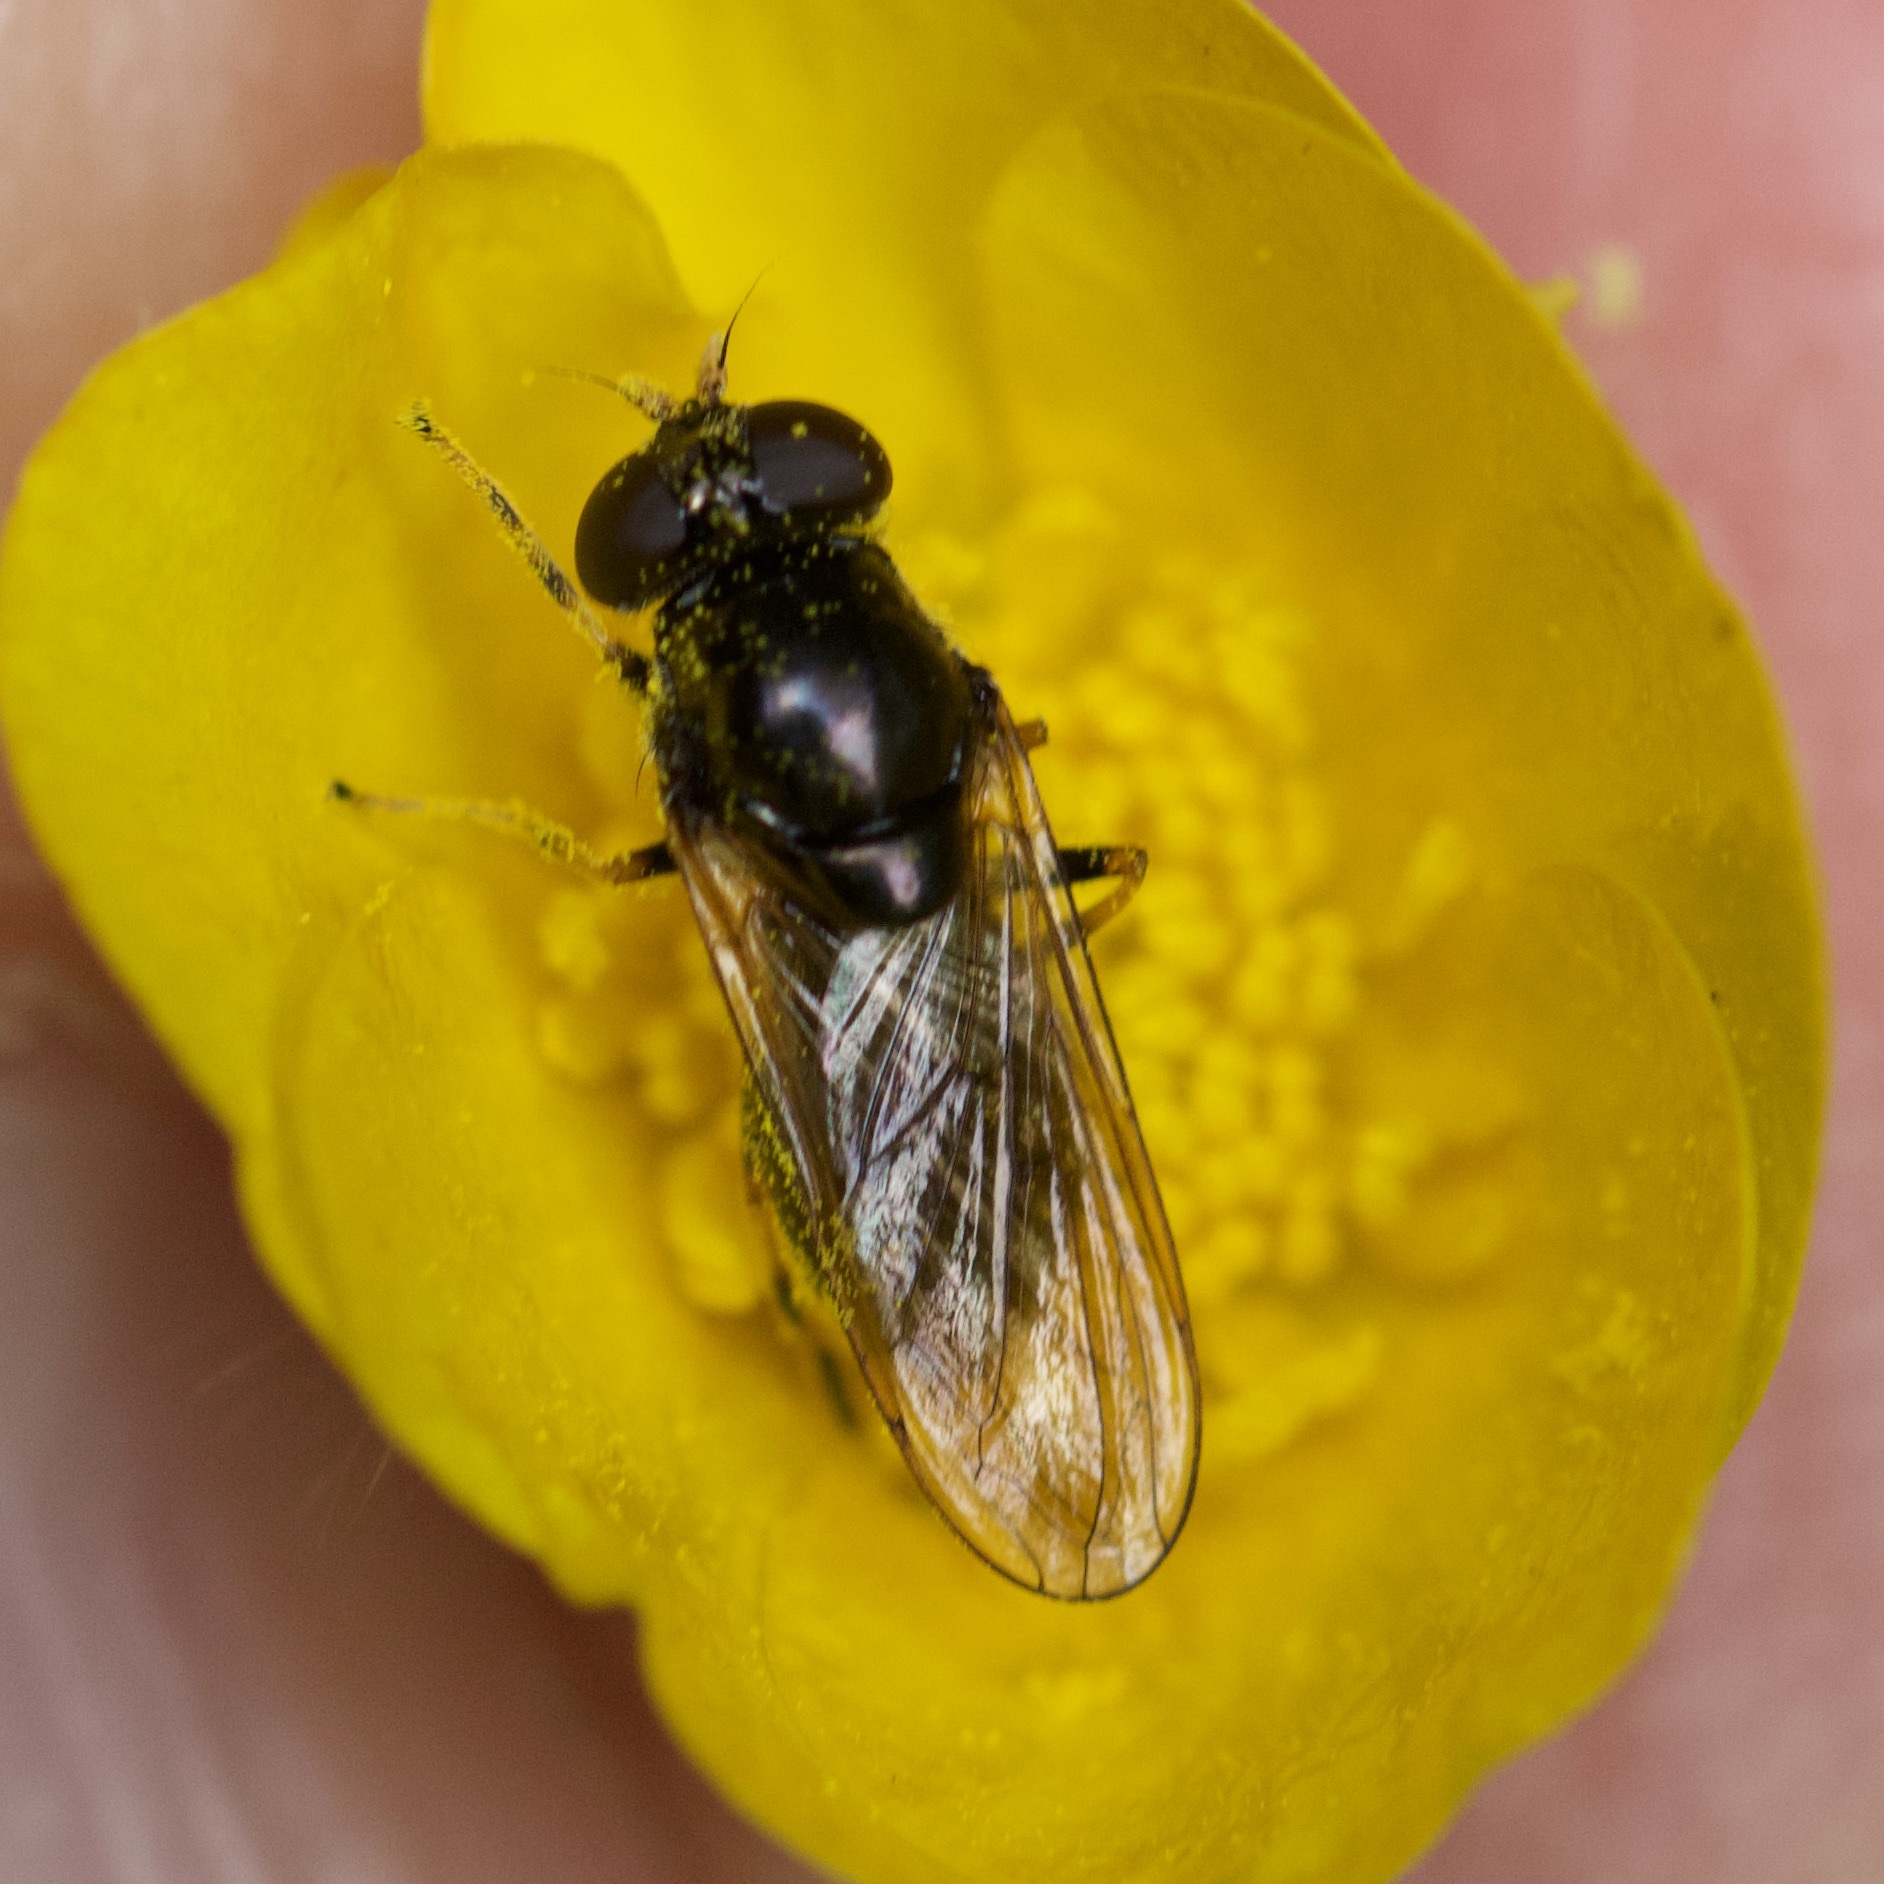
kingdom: Animalia
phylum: Arthropoda
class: Insecta
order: Diptera
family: Syrphidae
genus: Cheilosia
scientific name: Cheilosia pagana
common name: Hover fly
